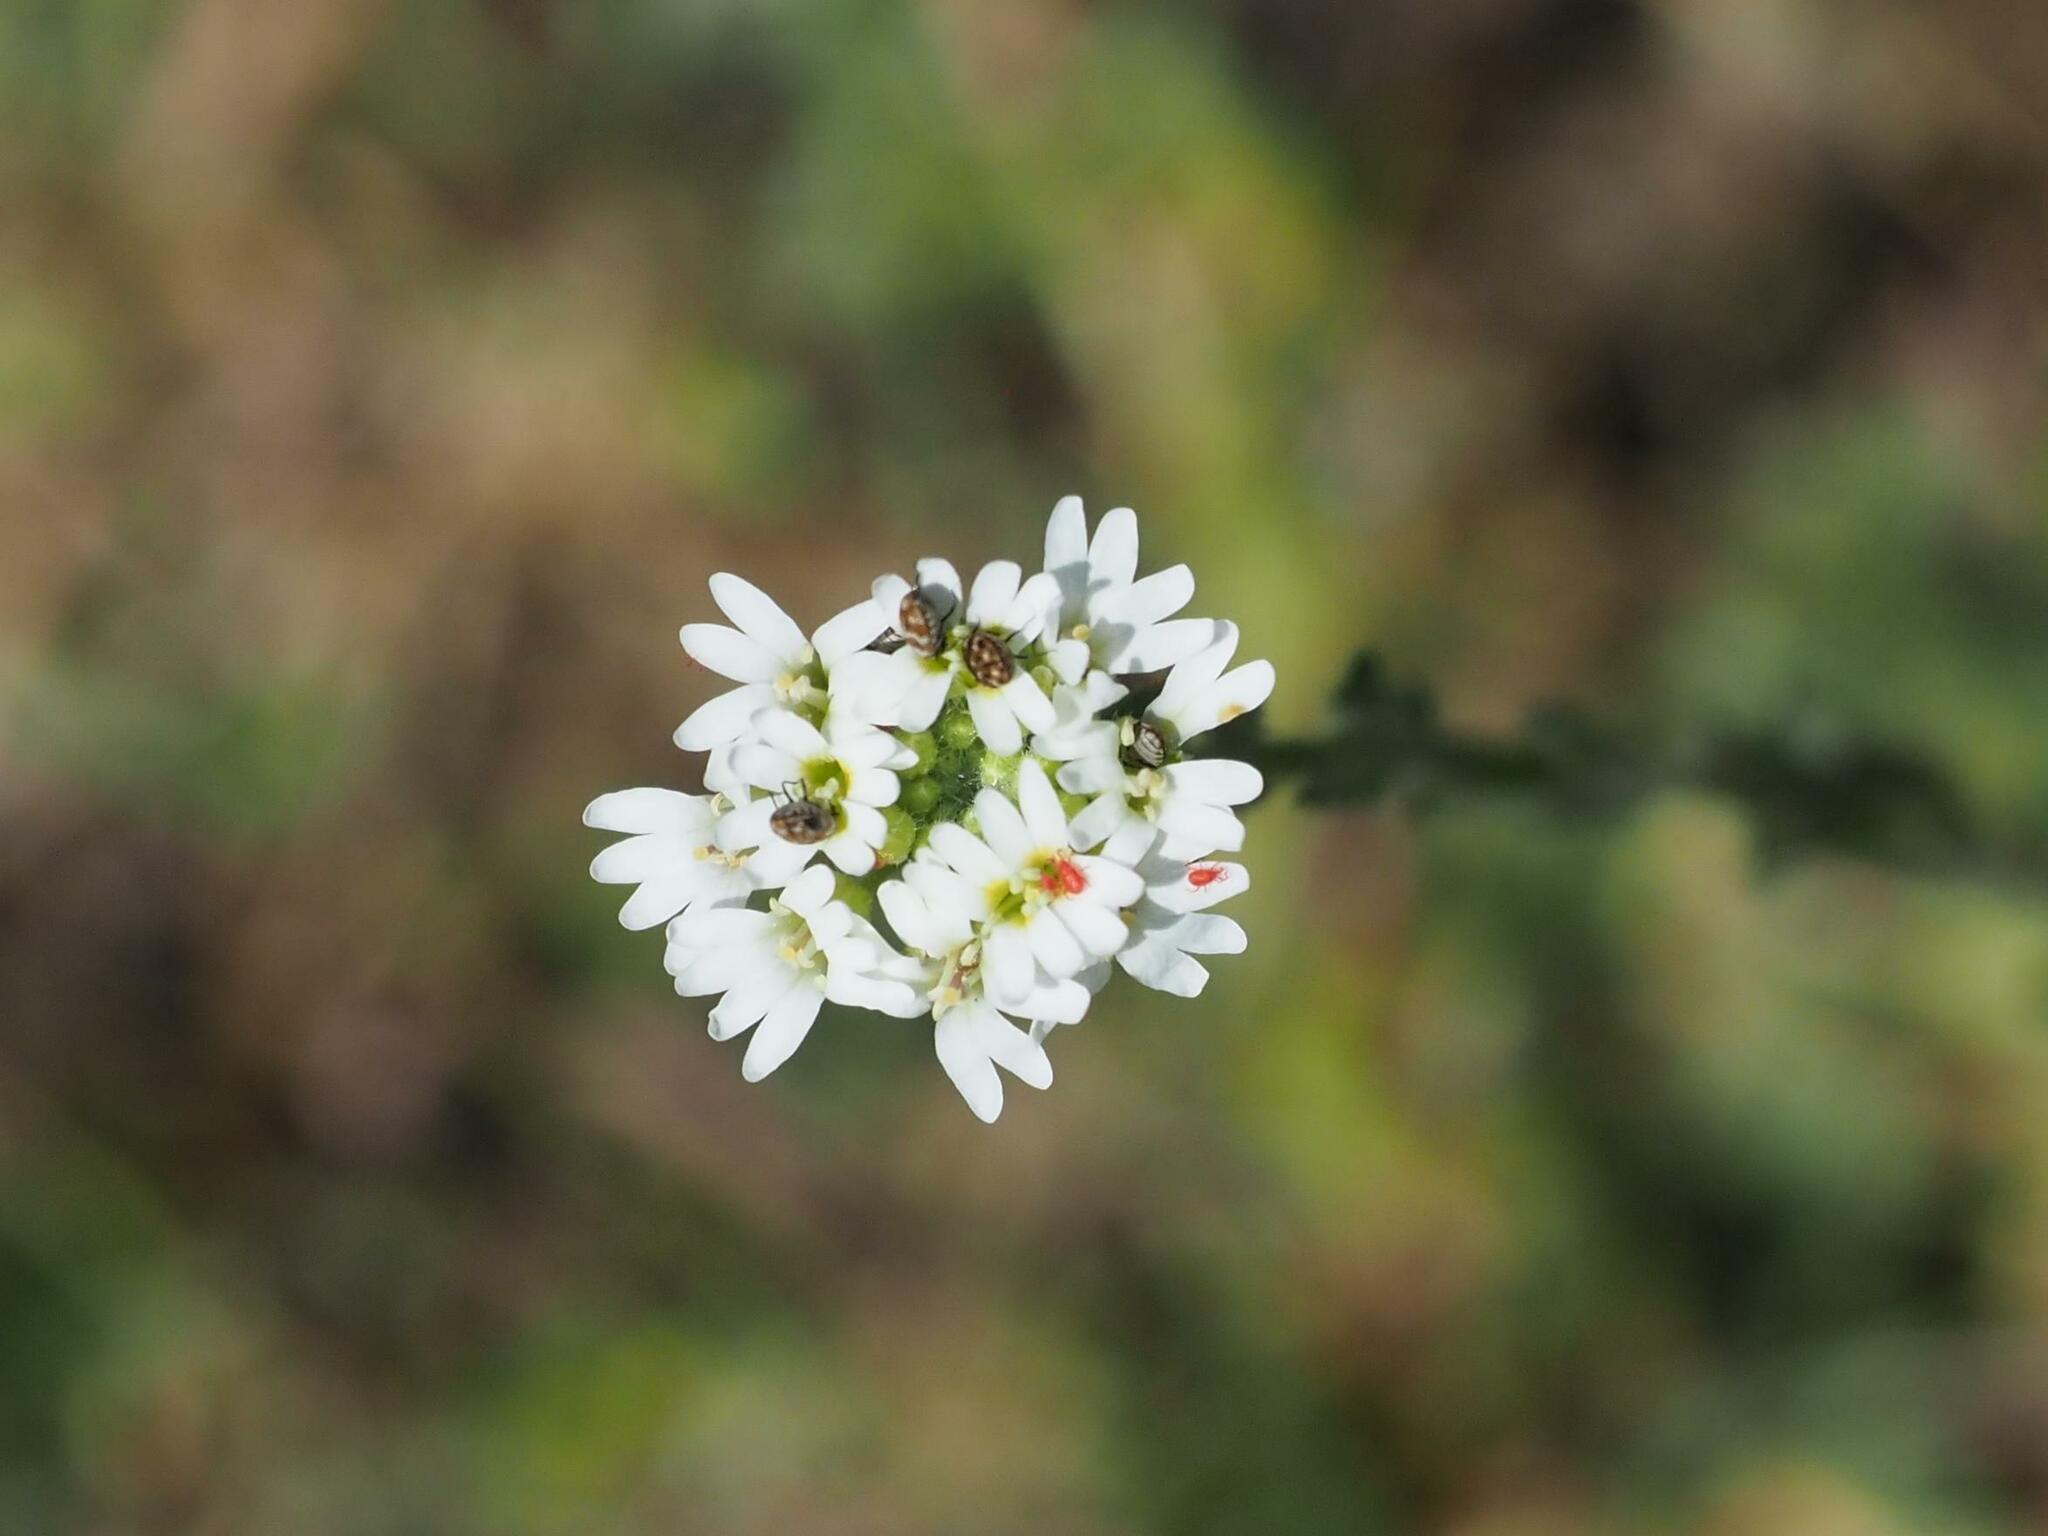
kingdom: Plantae
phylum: Tracheophyta
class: Magnoliopsida
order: Brassicales
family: Brassicaceae
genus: Berteroa
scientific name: Berteroa incana
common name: Hoary alison
